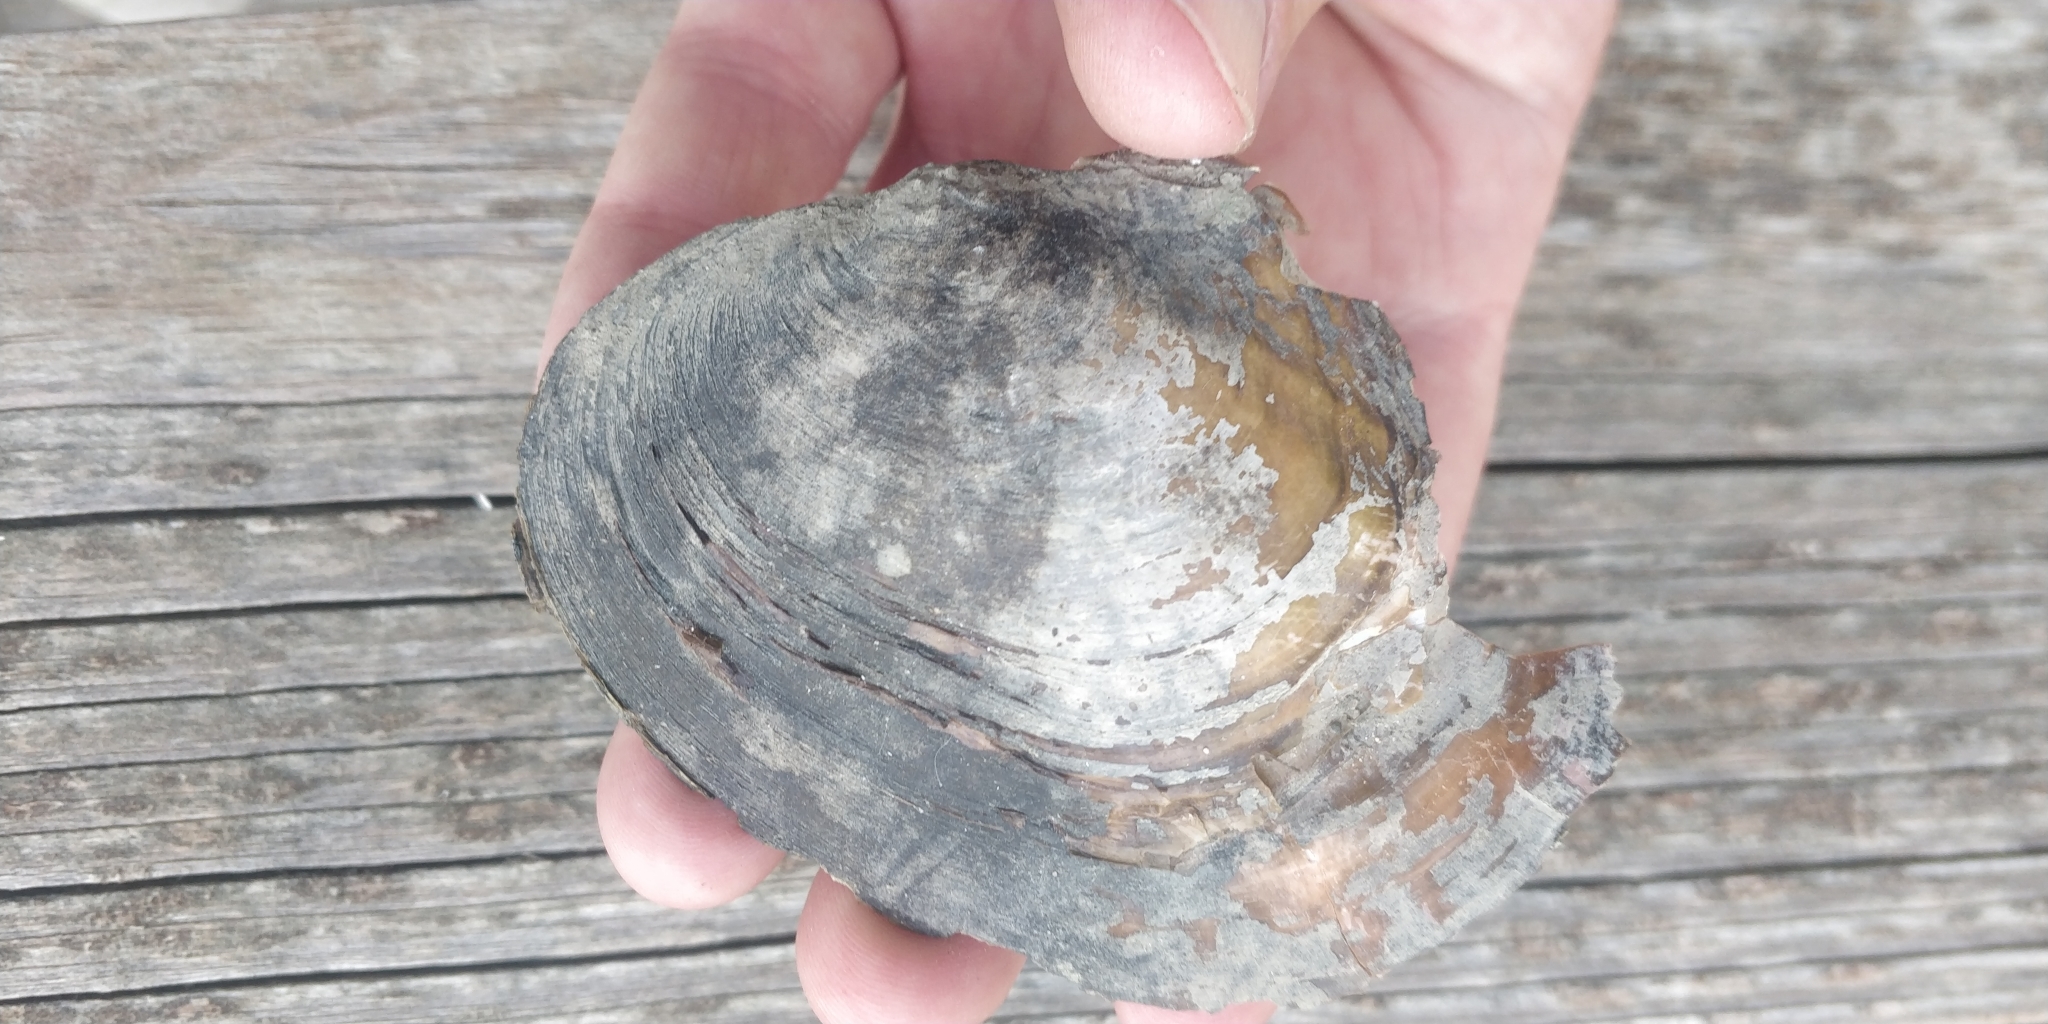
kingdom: Animalia
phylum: Mollusca
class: Bivalvia
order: Unionida
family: Unionidae
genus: Lasmigona
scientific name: Lasmigona complanata
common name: White heelsplitter
